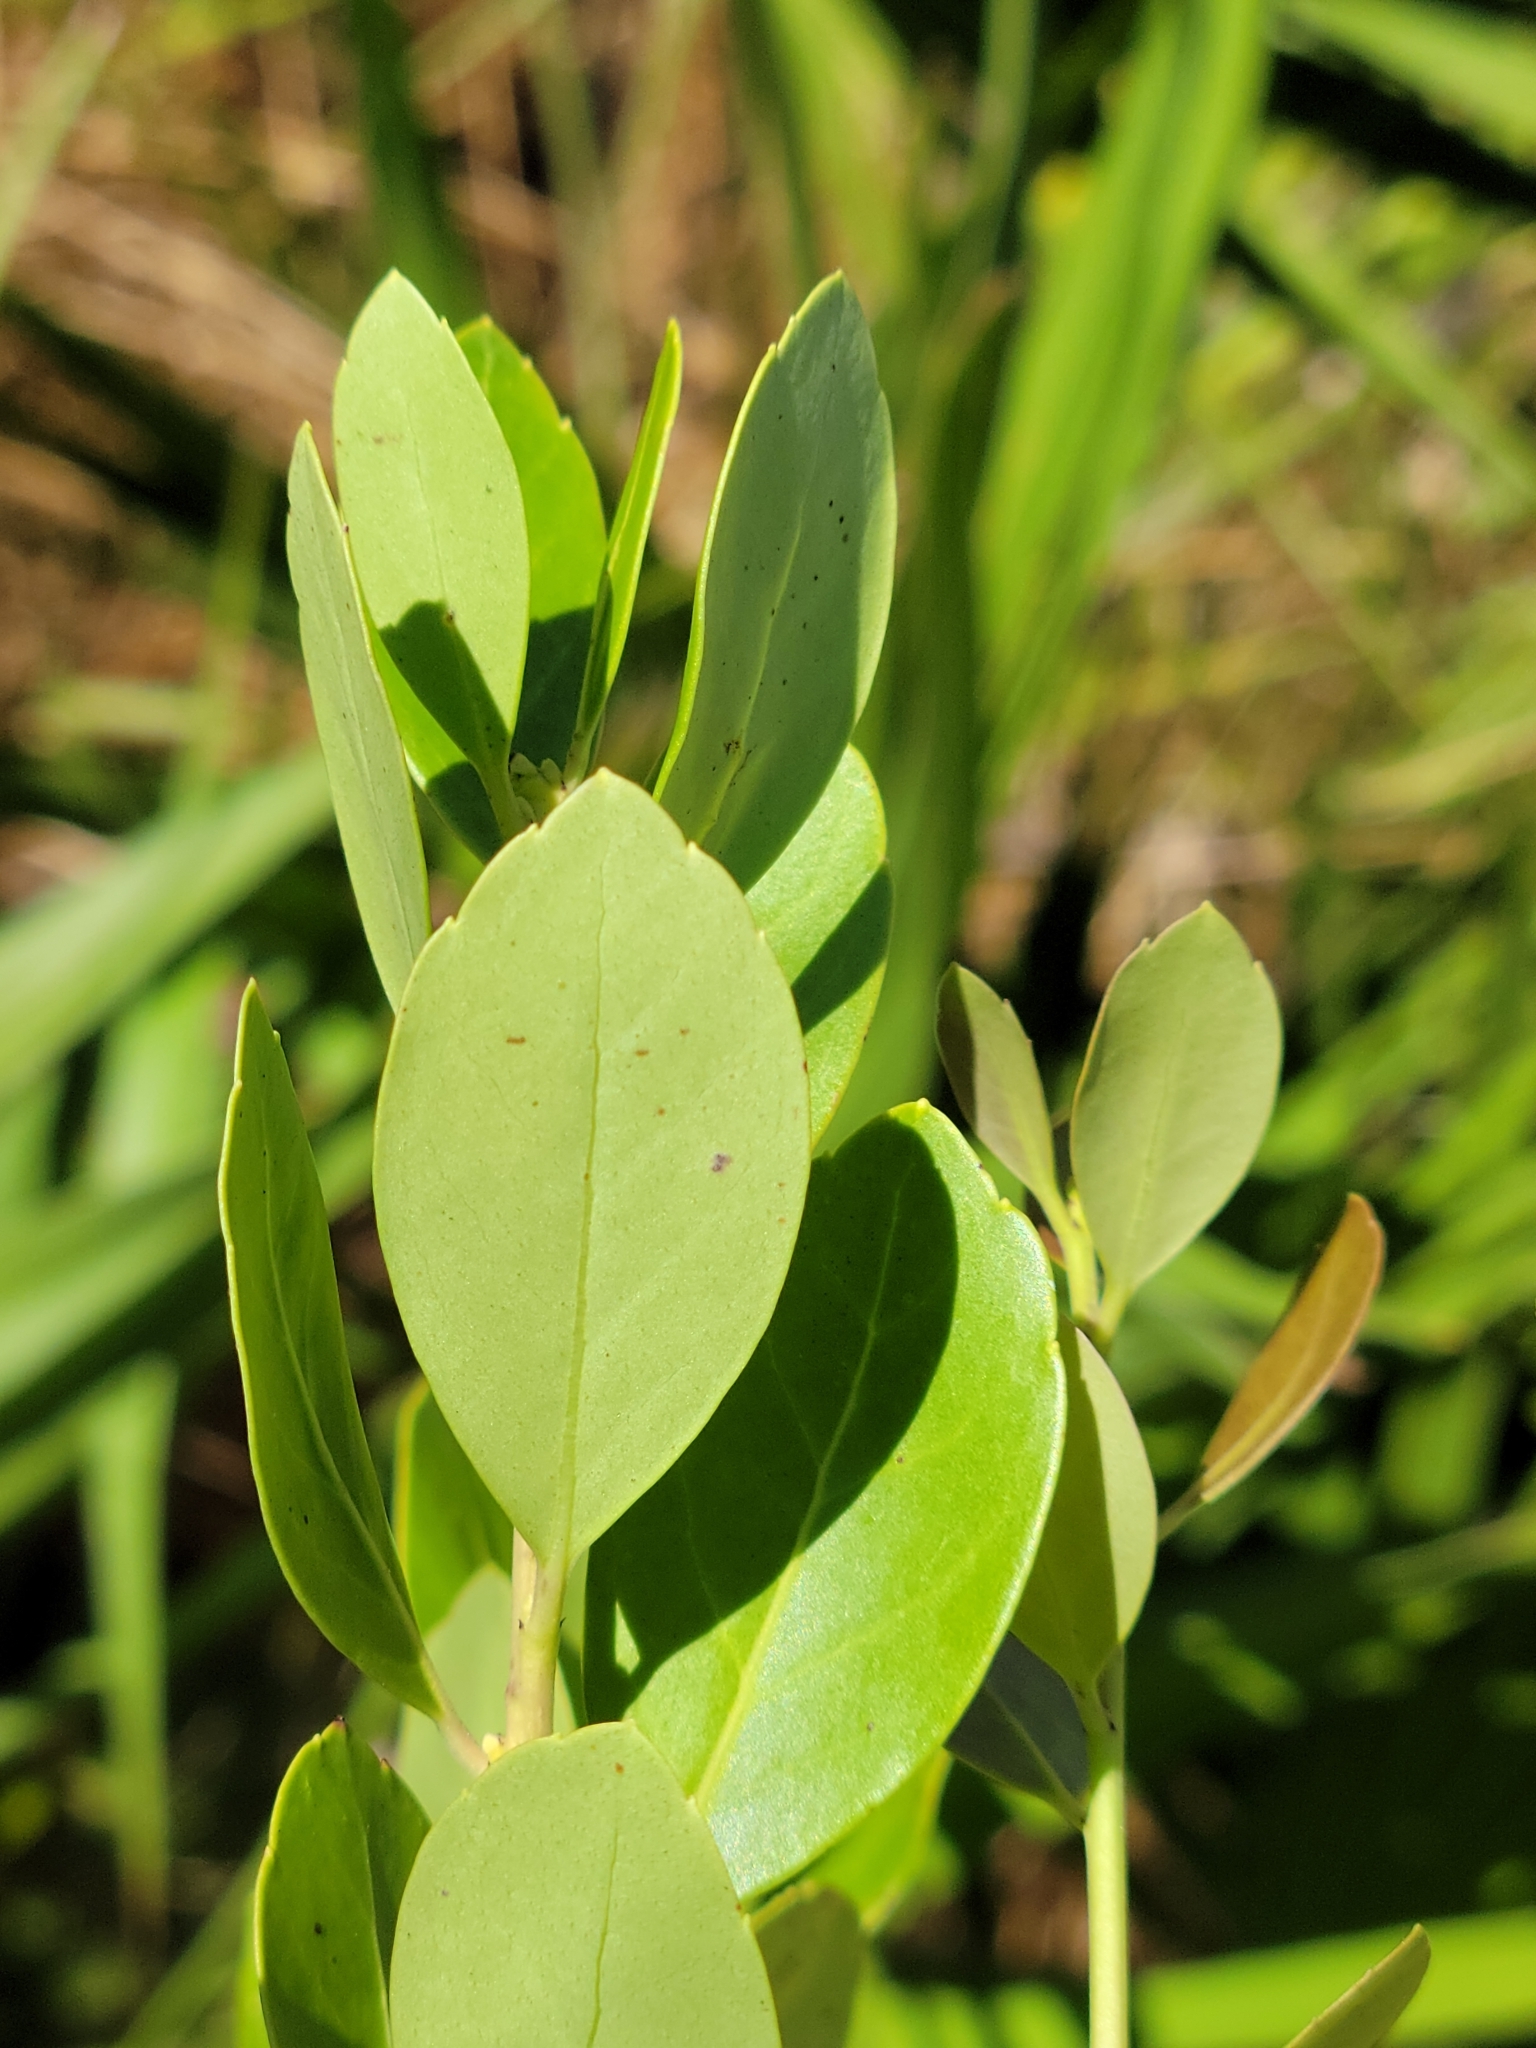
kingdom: Plantae
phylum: Tracheophyta
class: Magnoliopsida
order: Aquifoliales
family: Aquifoliaceae
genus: Ilex
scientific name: Ilex glabra
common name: Bitter gallberry
